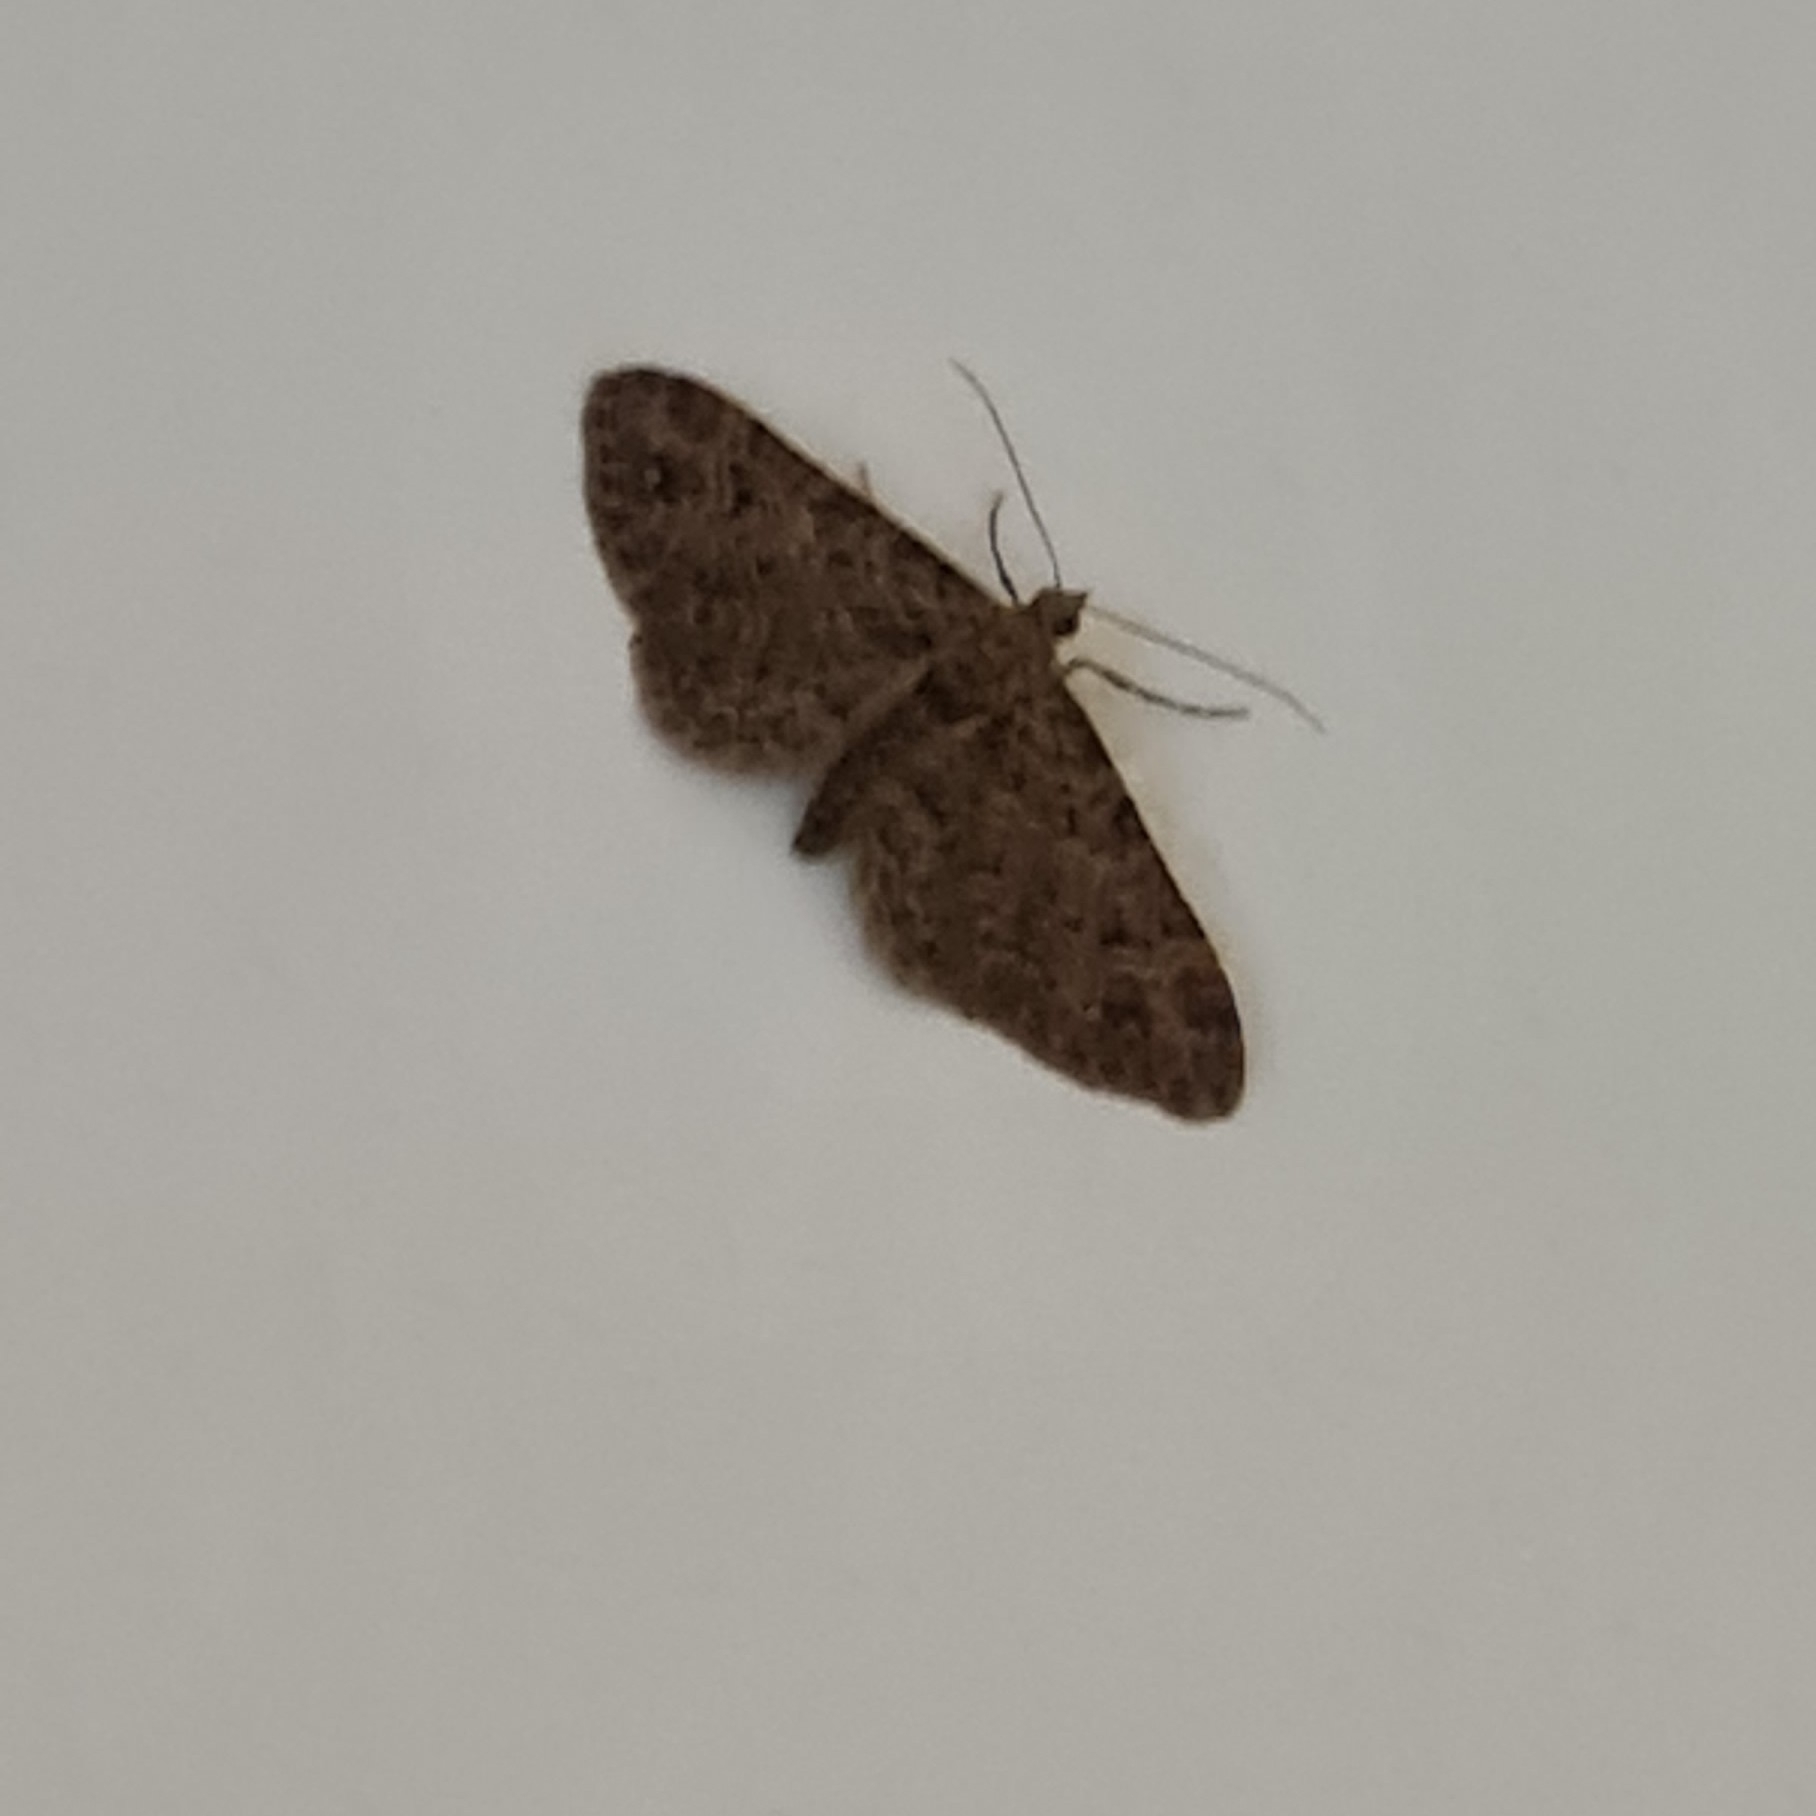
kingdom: Animalia
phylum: Arthropoda
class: Insecta
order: Lepidoptera
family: Geometridae
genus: Gymnoscelis
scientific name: Gymnoscelis rufifasciata
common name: Double-striped pug
